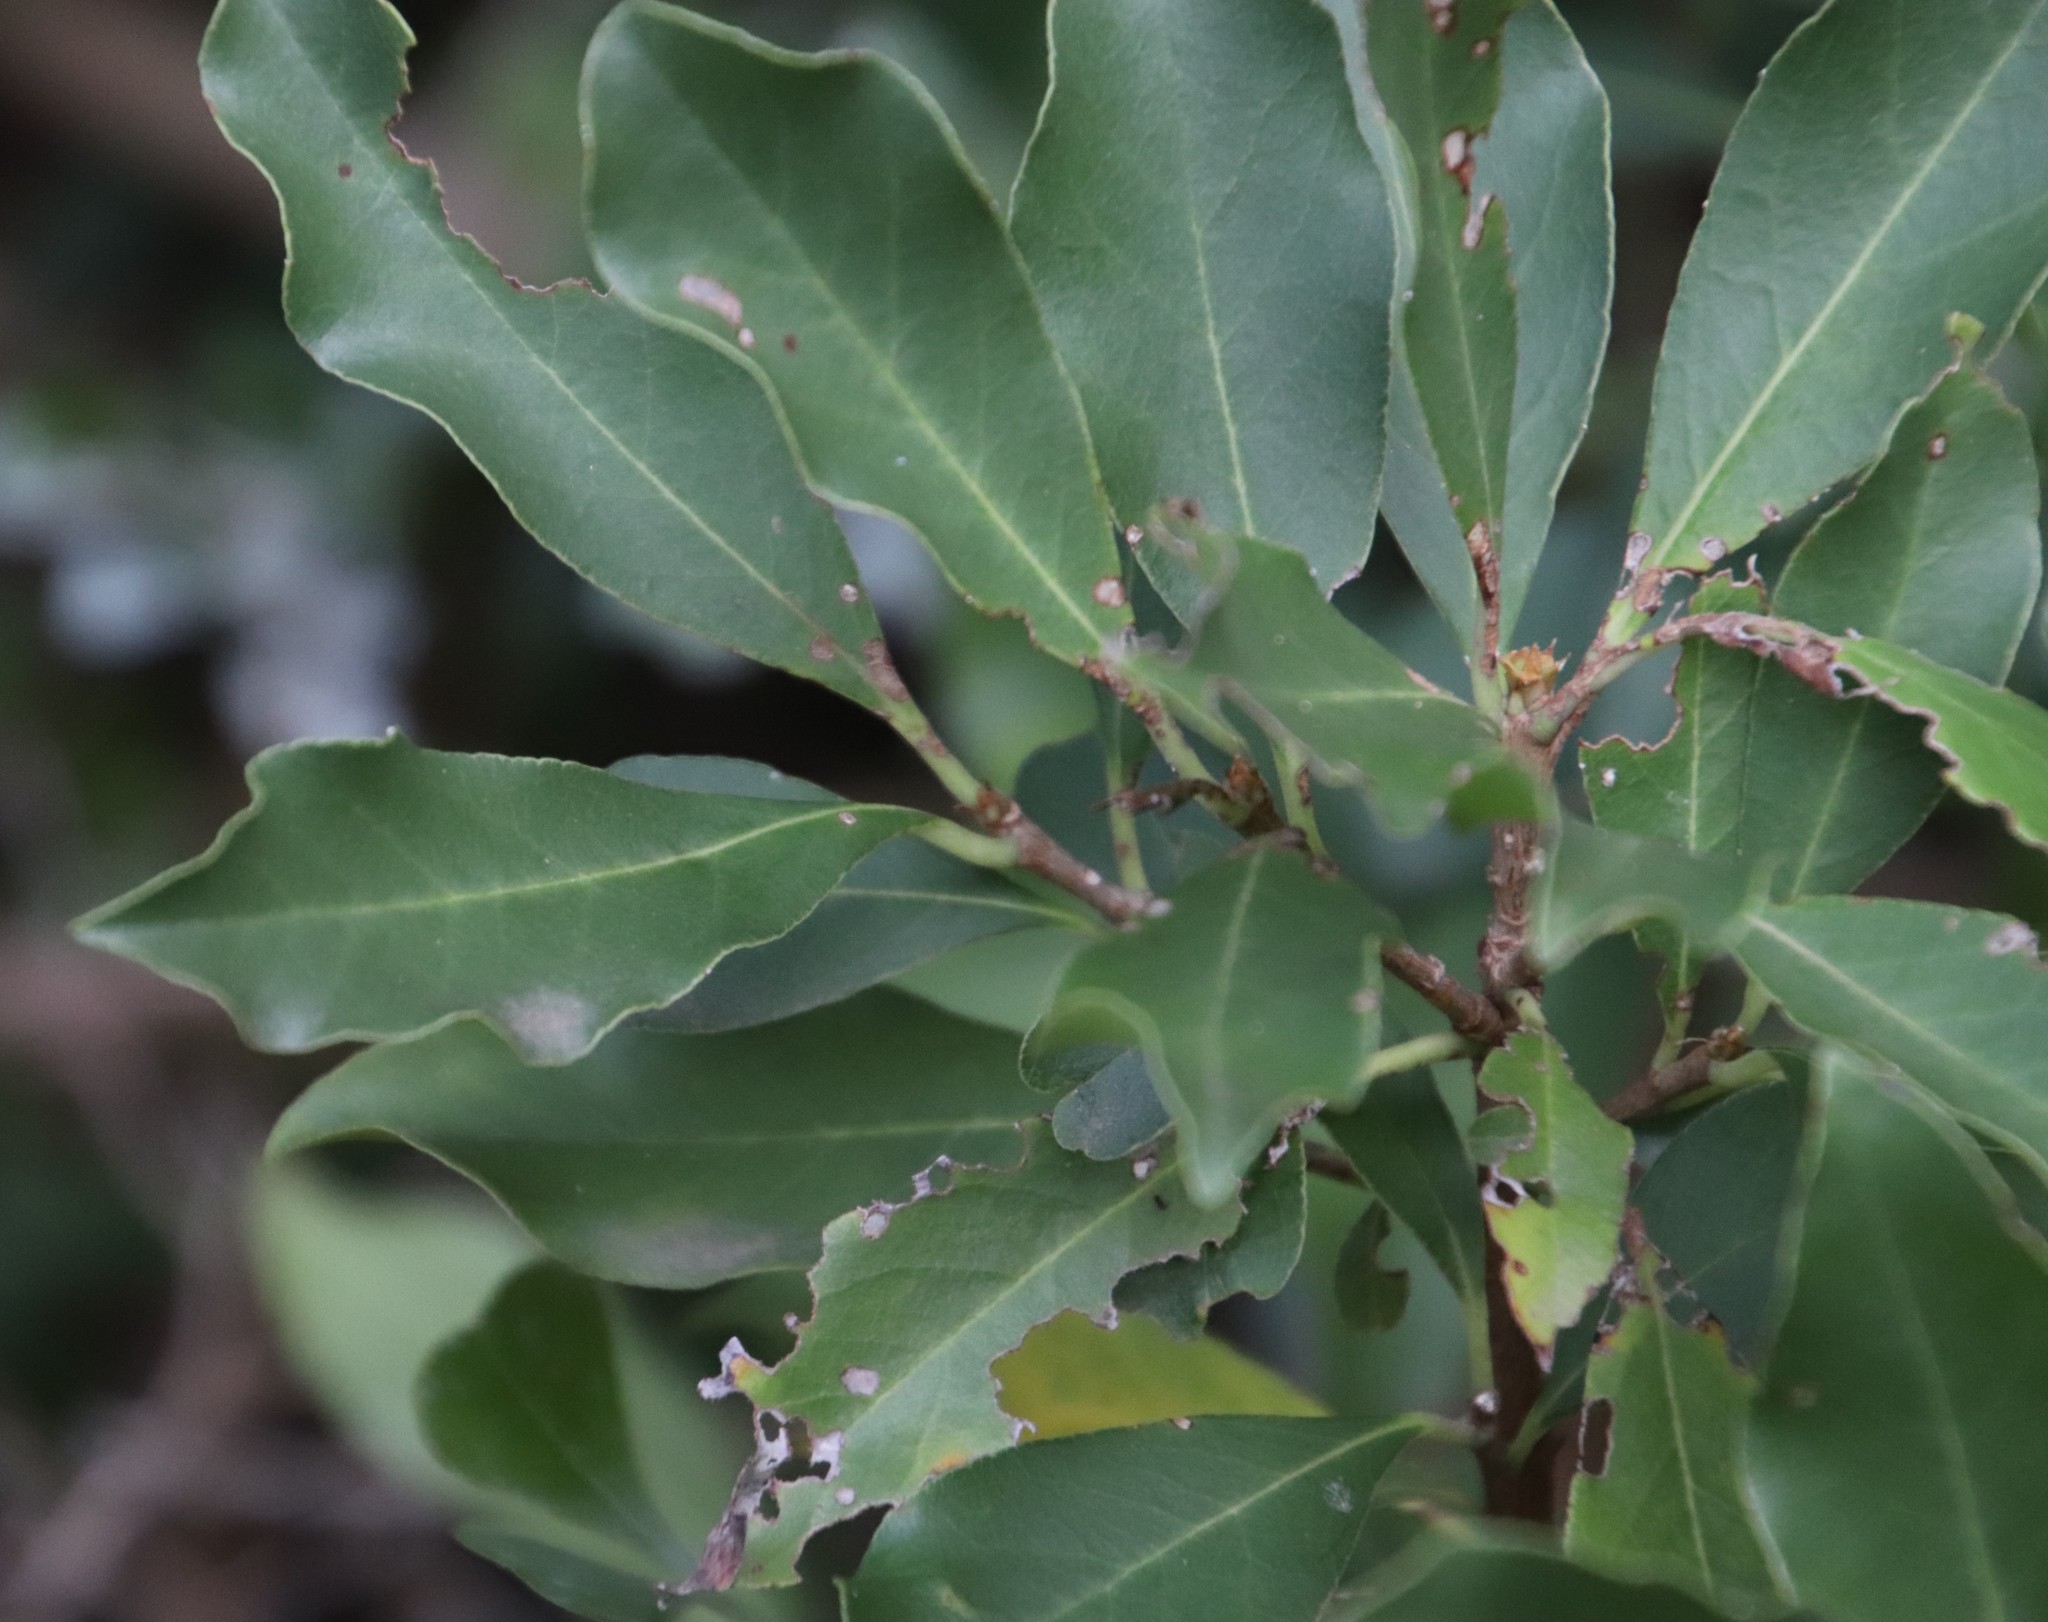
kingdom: Plantae
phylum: Tracheophyta
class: Magnoliopsida
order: Aquifoliales
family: Aquifoliaceae
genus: Ilex
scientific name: Ilex mitis
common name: African holly
